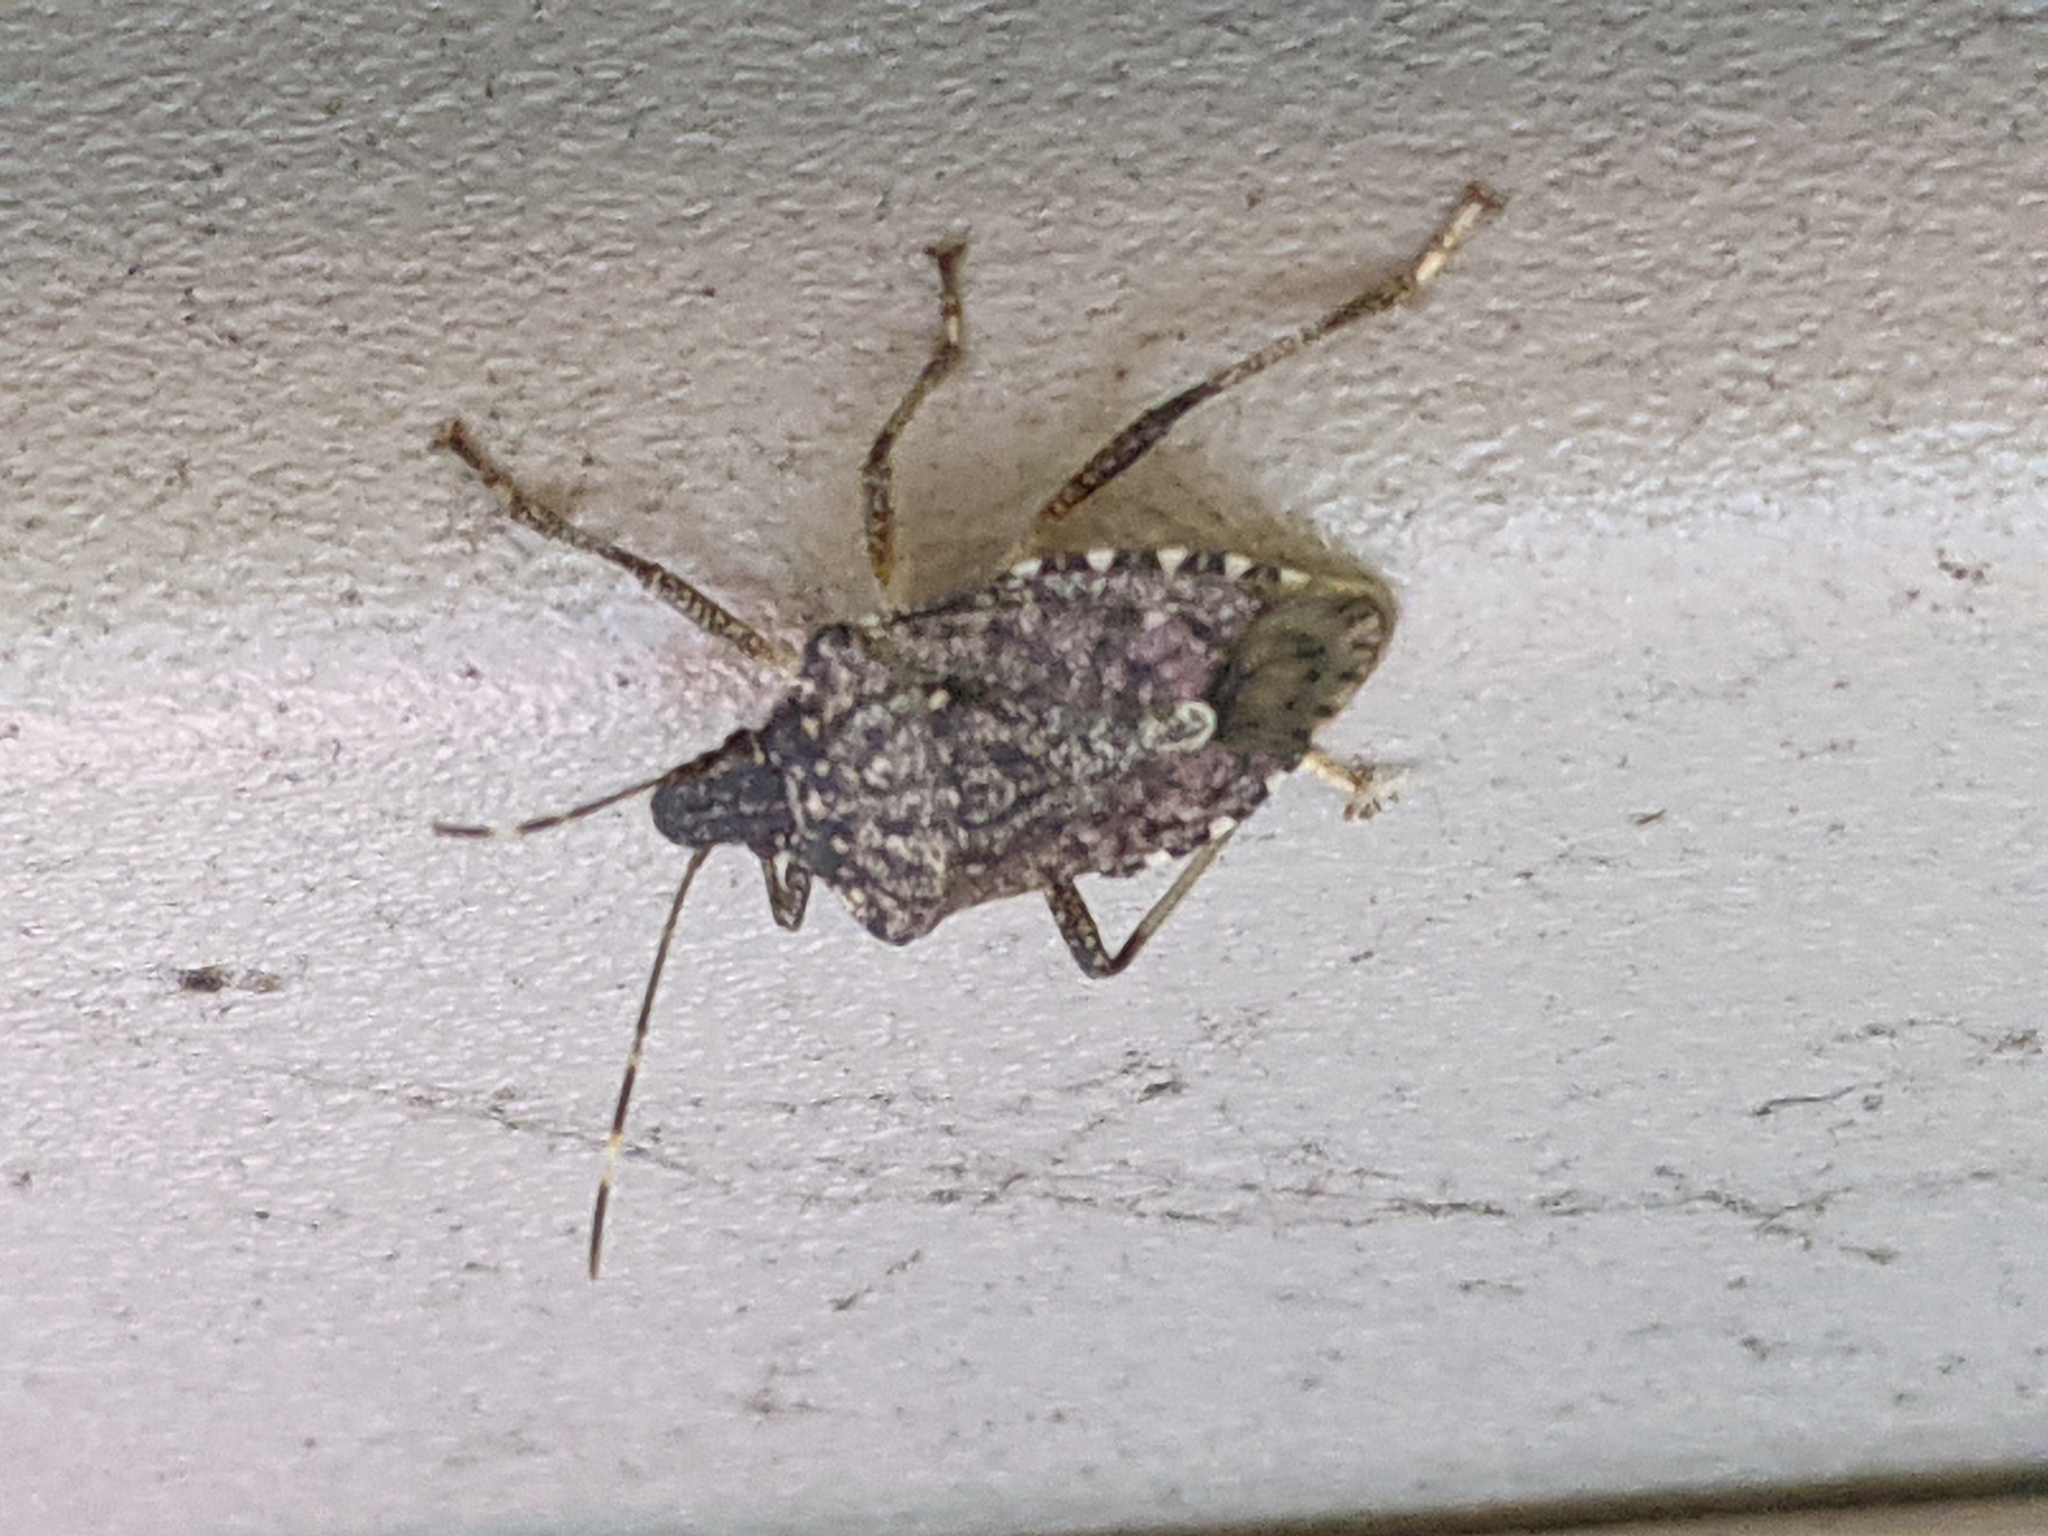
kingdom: Animalia
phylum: Arthropoda
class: Insecta
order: Hemiptera
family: Pentatomidae
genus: Halyomorpha
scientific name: Halyomorpha halys
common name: Brown marmorated stink bug
